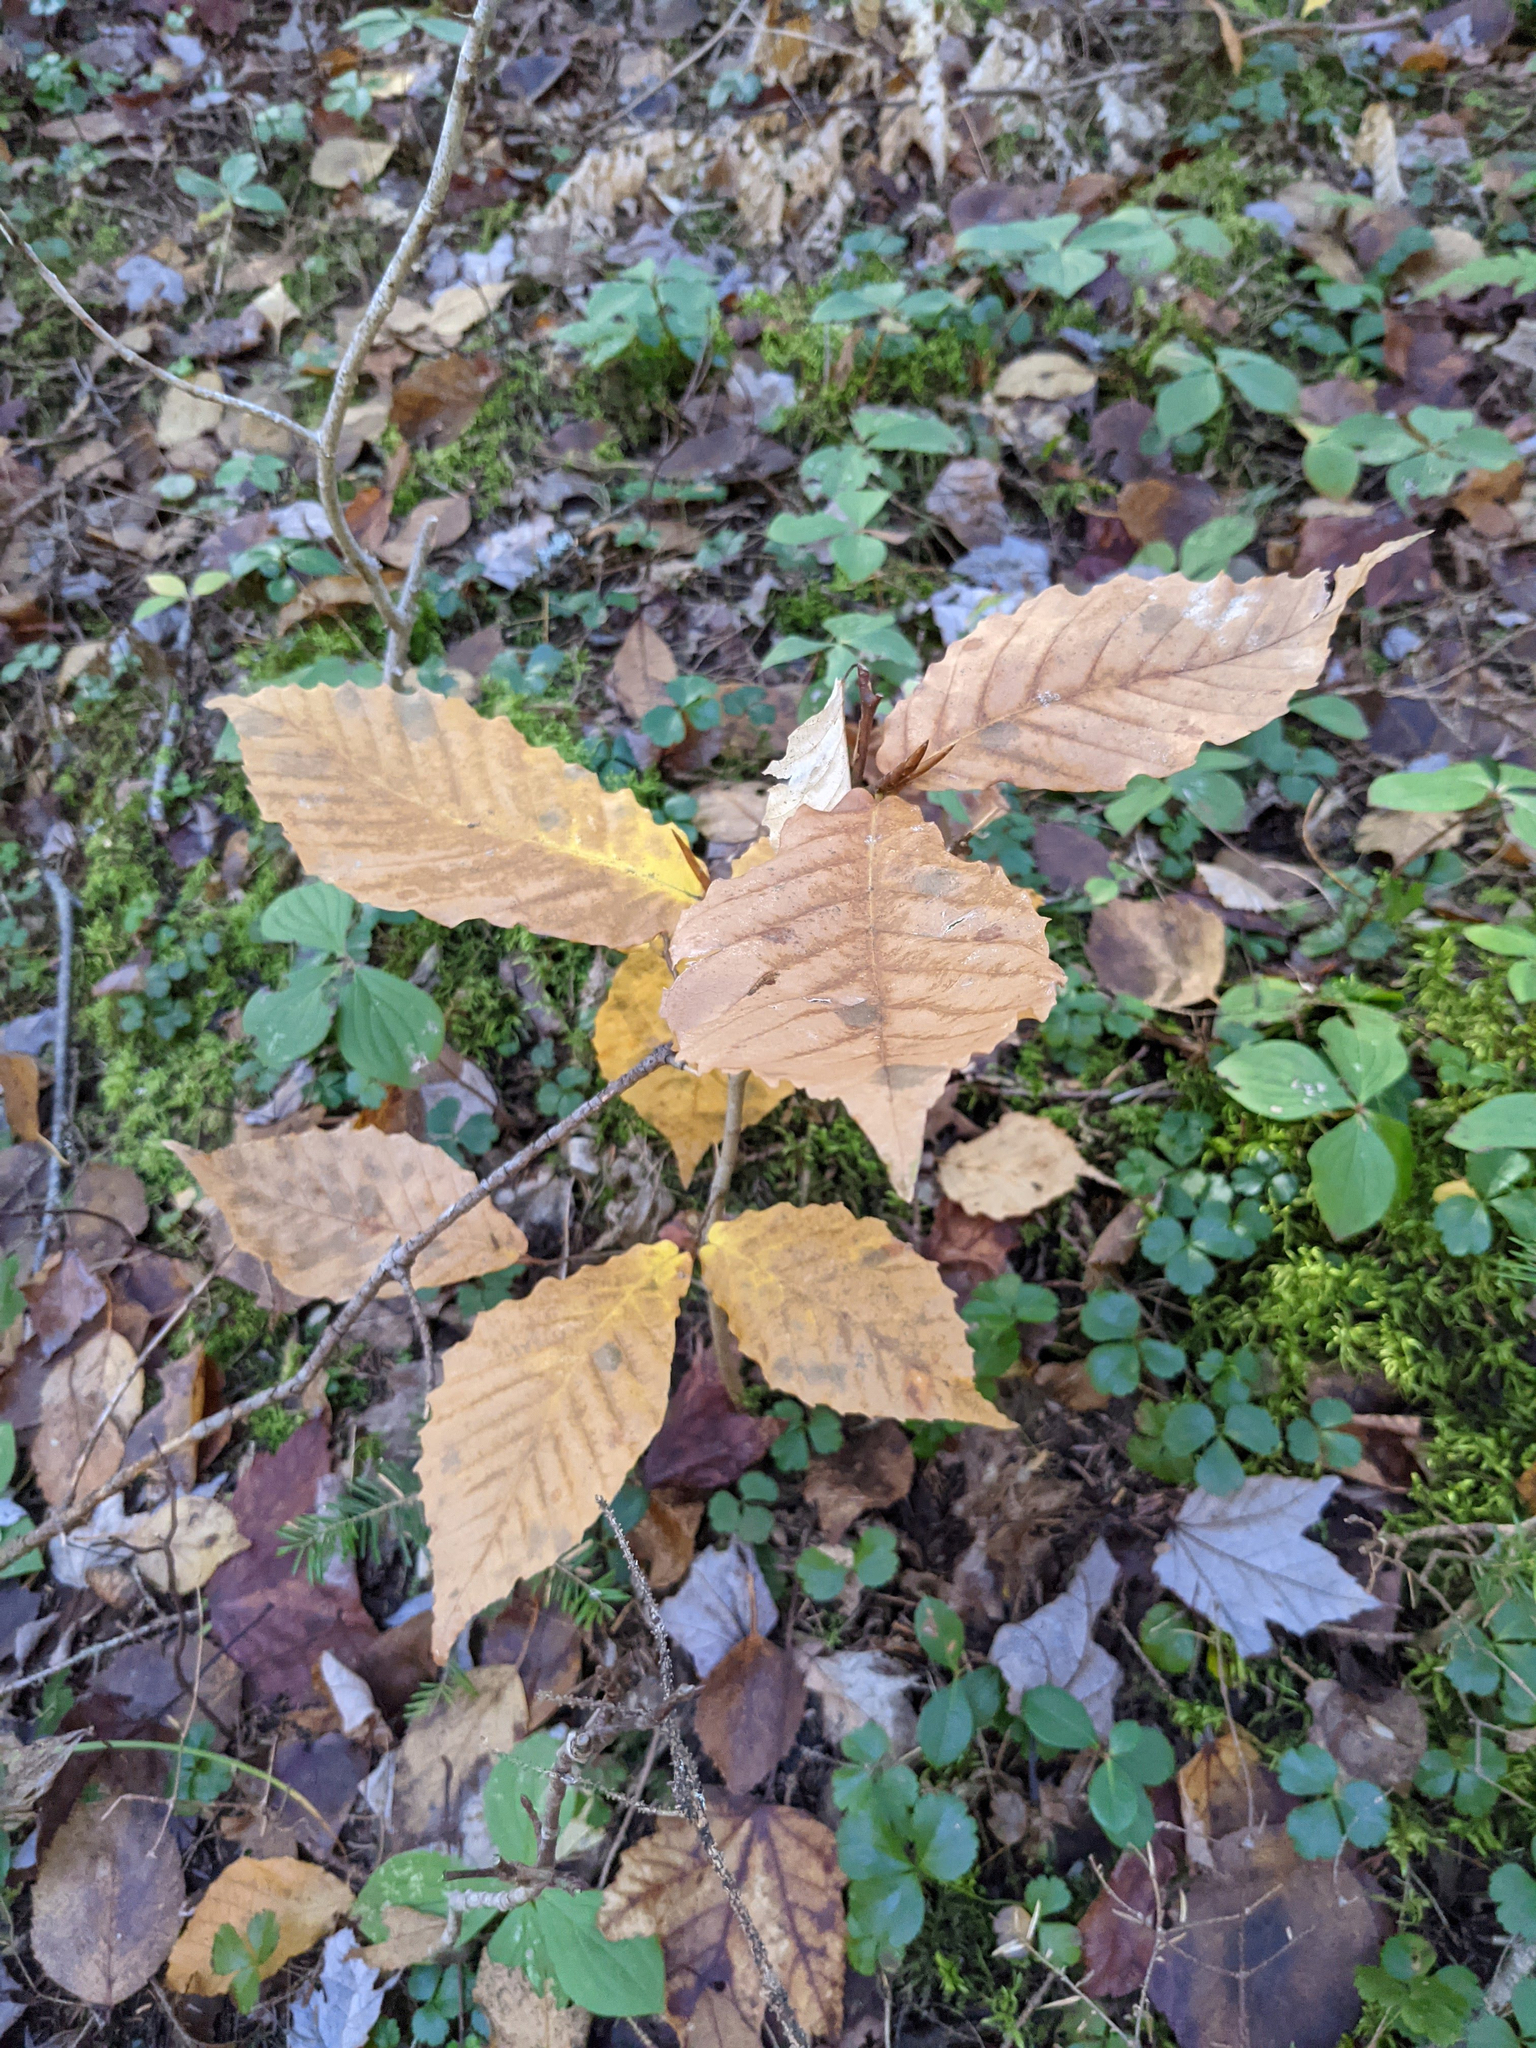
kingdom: Plantae
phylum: Tracheophyta
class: Magnoliopsida
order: Fagales
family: Fagaceae
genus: Fagus
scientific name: Fagus grandifolia
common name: American beech
